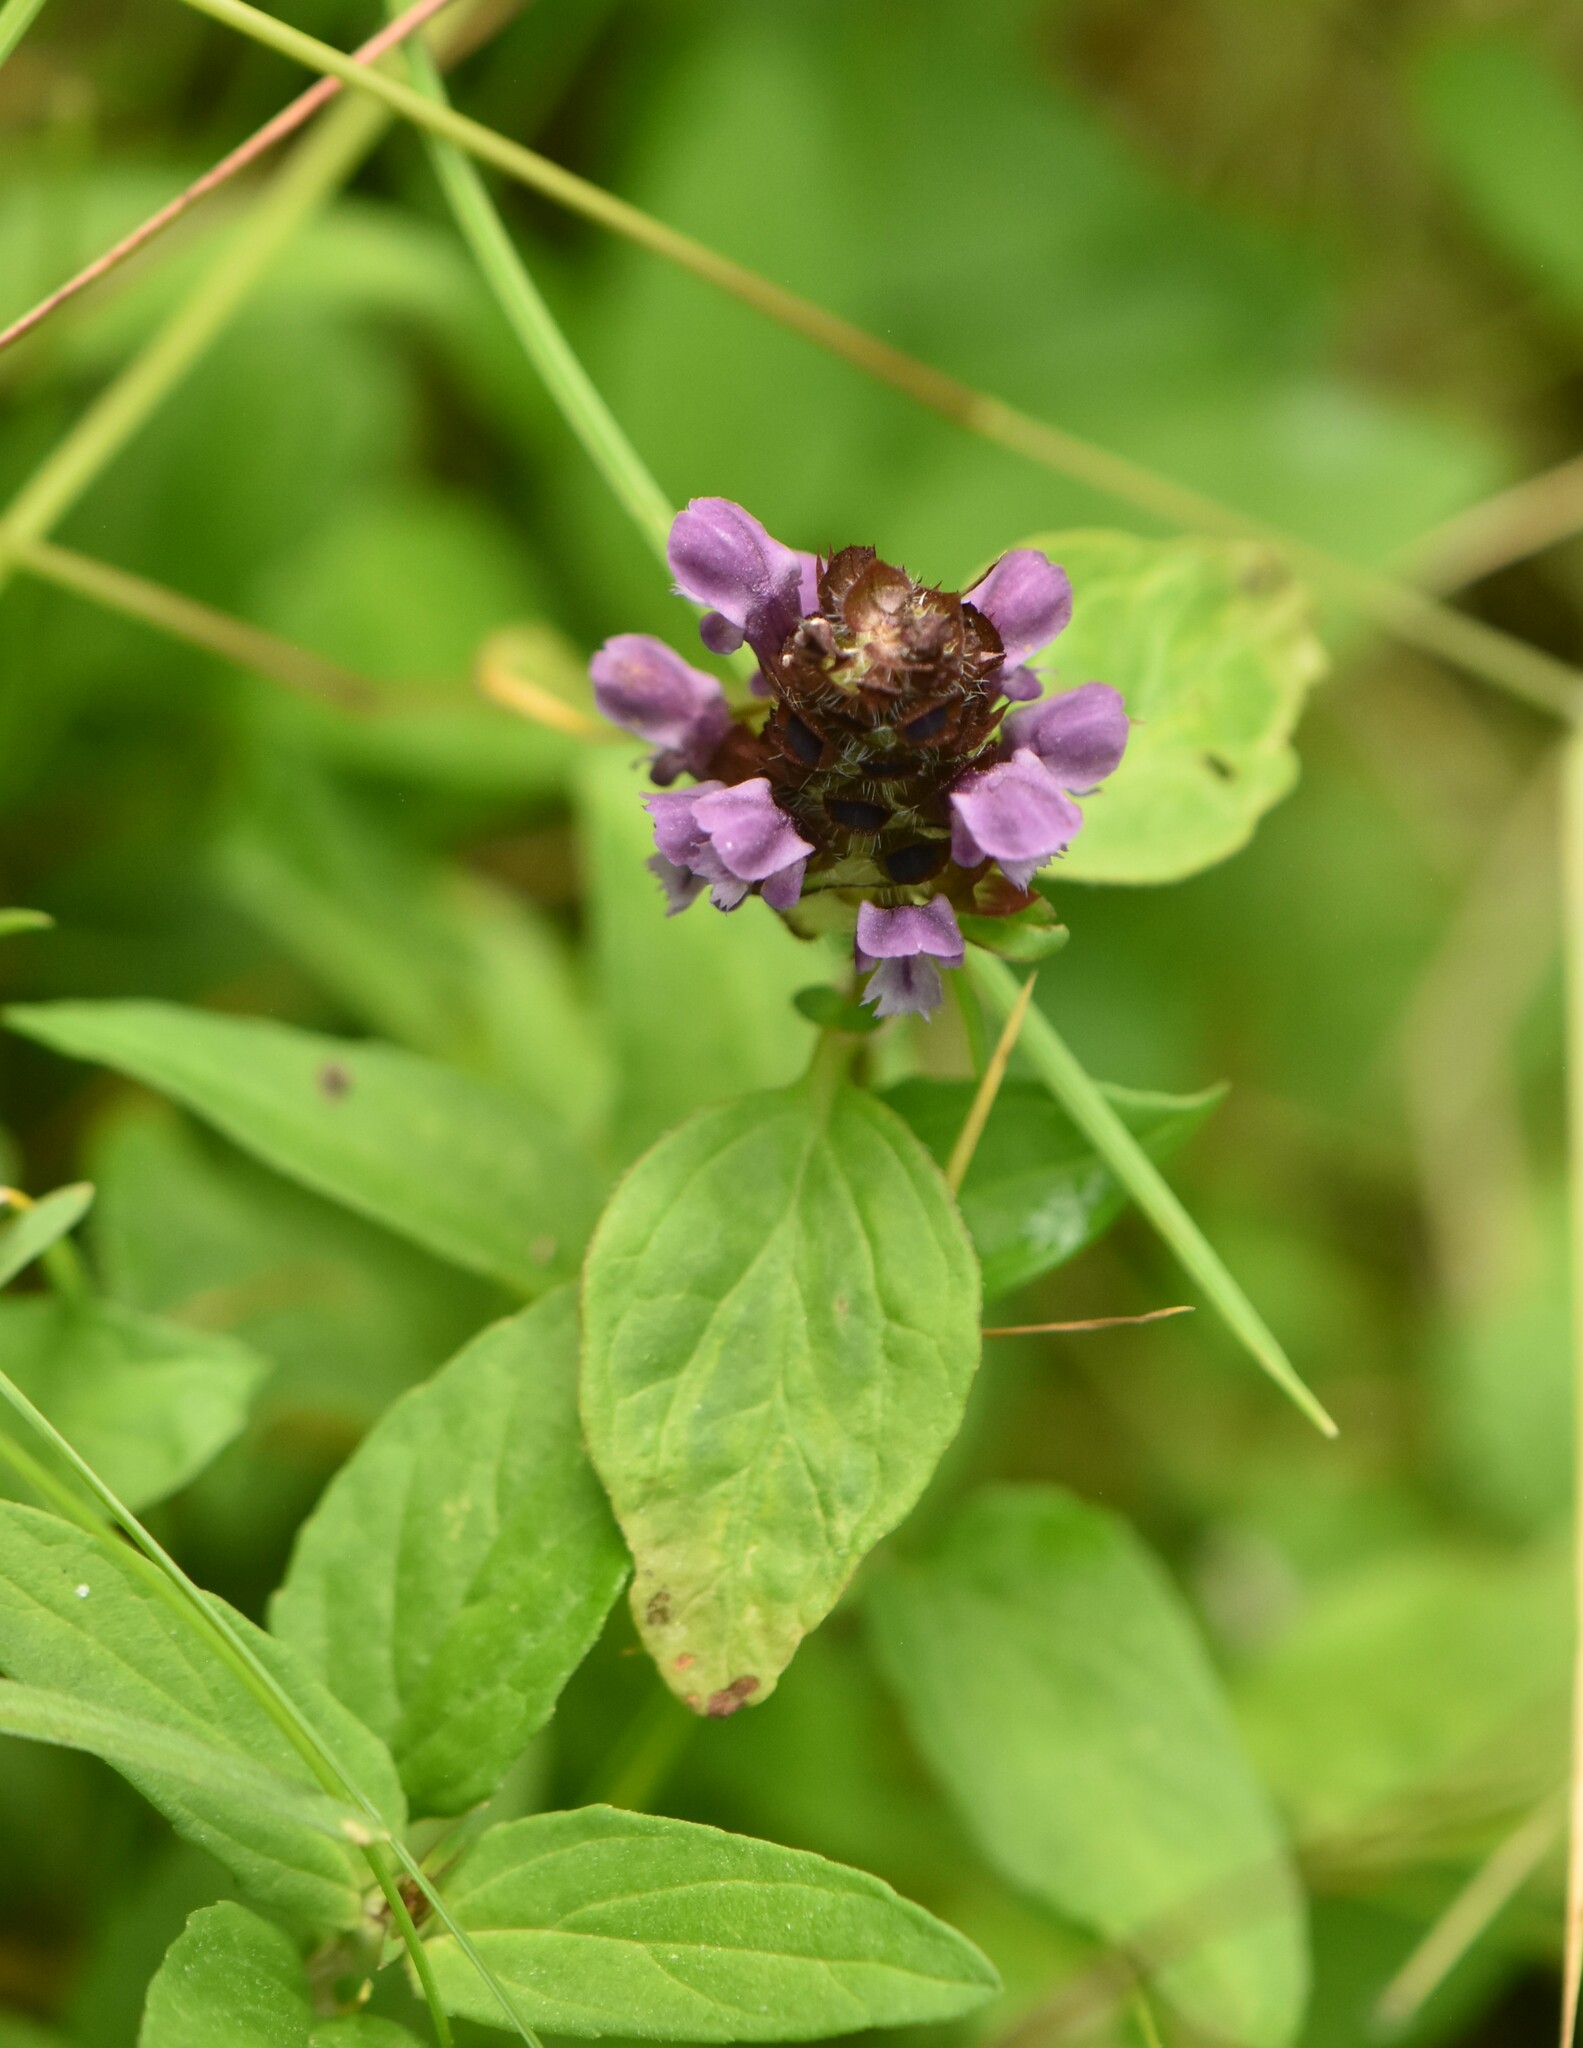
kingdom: Plantae
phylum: Tracheophyta
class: Magnoliopsida
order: Lamiales
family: Lamiaceae
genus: Prunella
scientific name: Prunella vulgaris
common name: Heal-all
